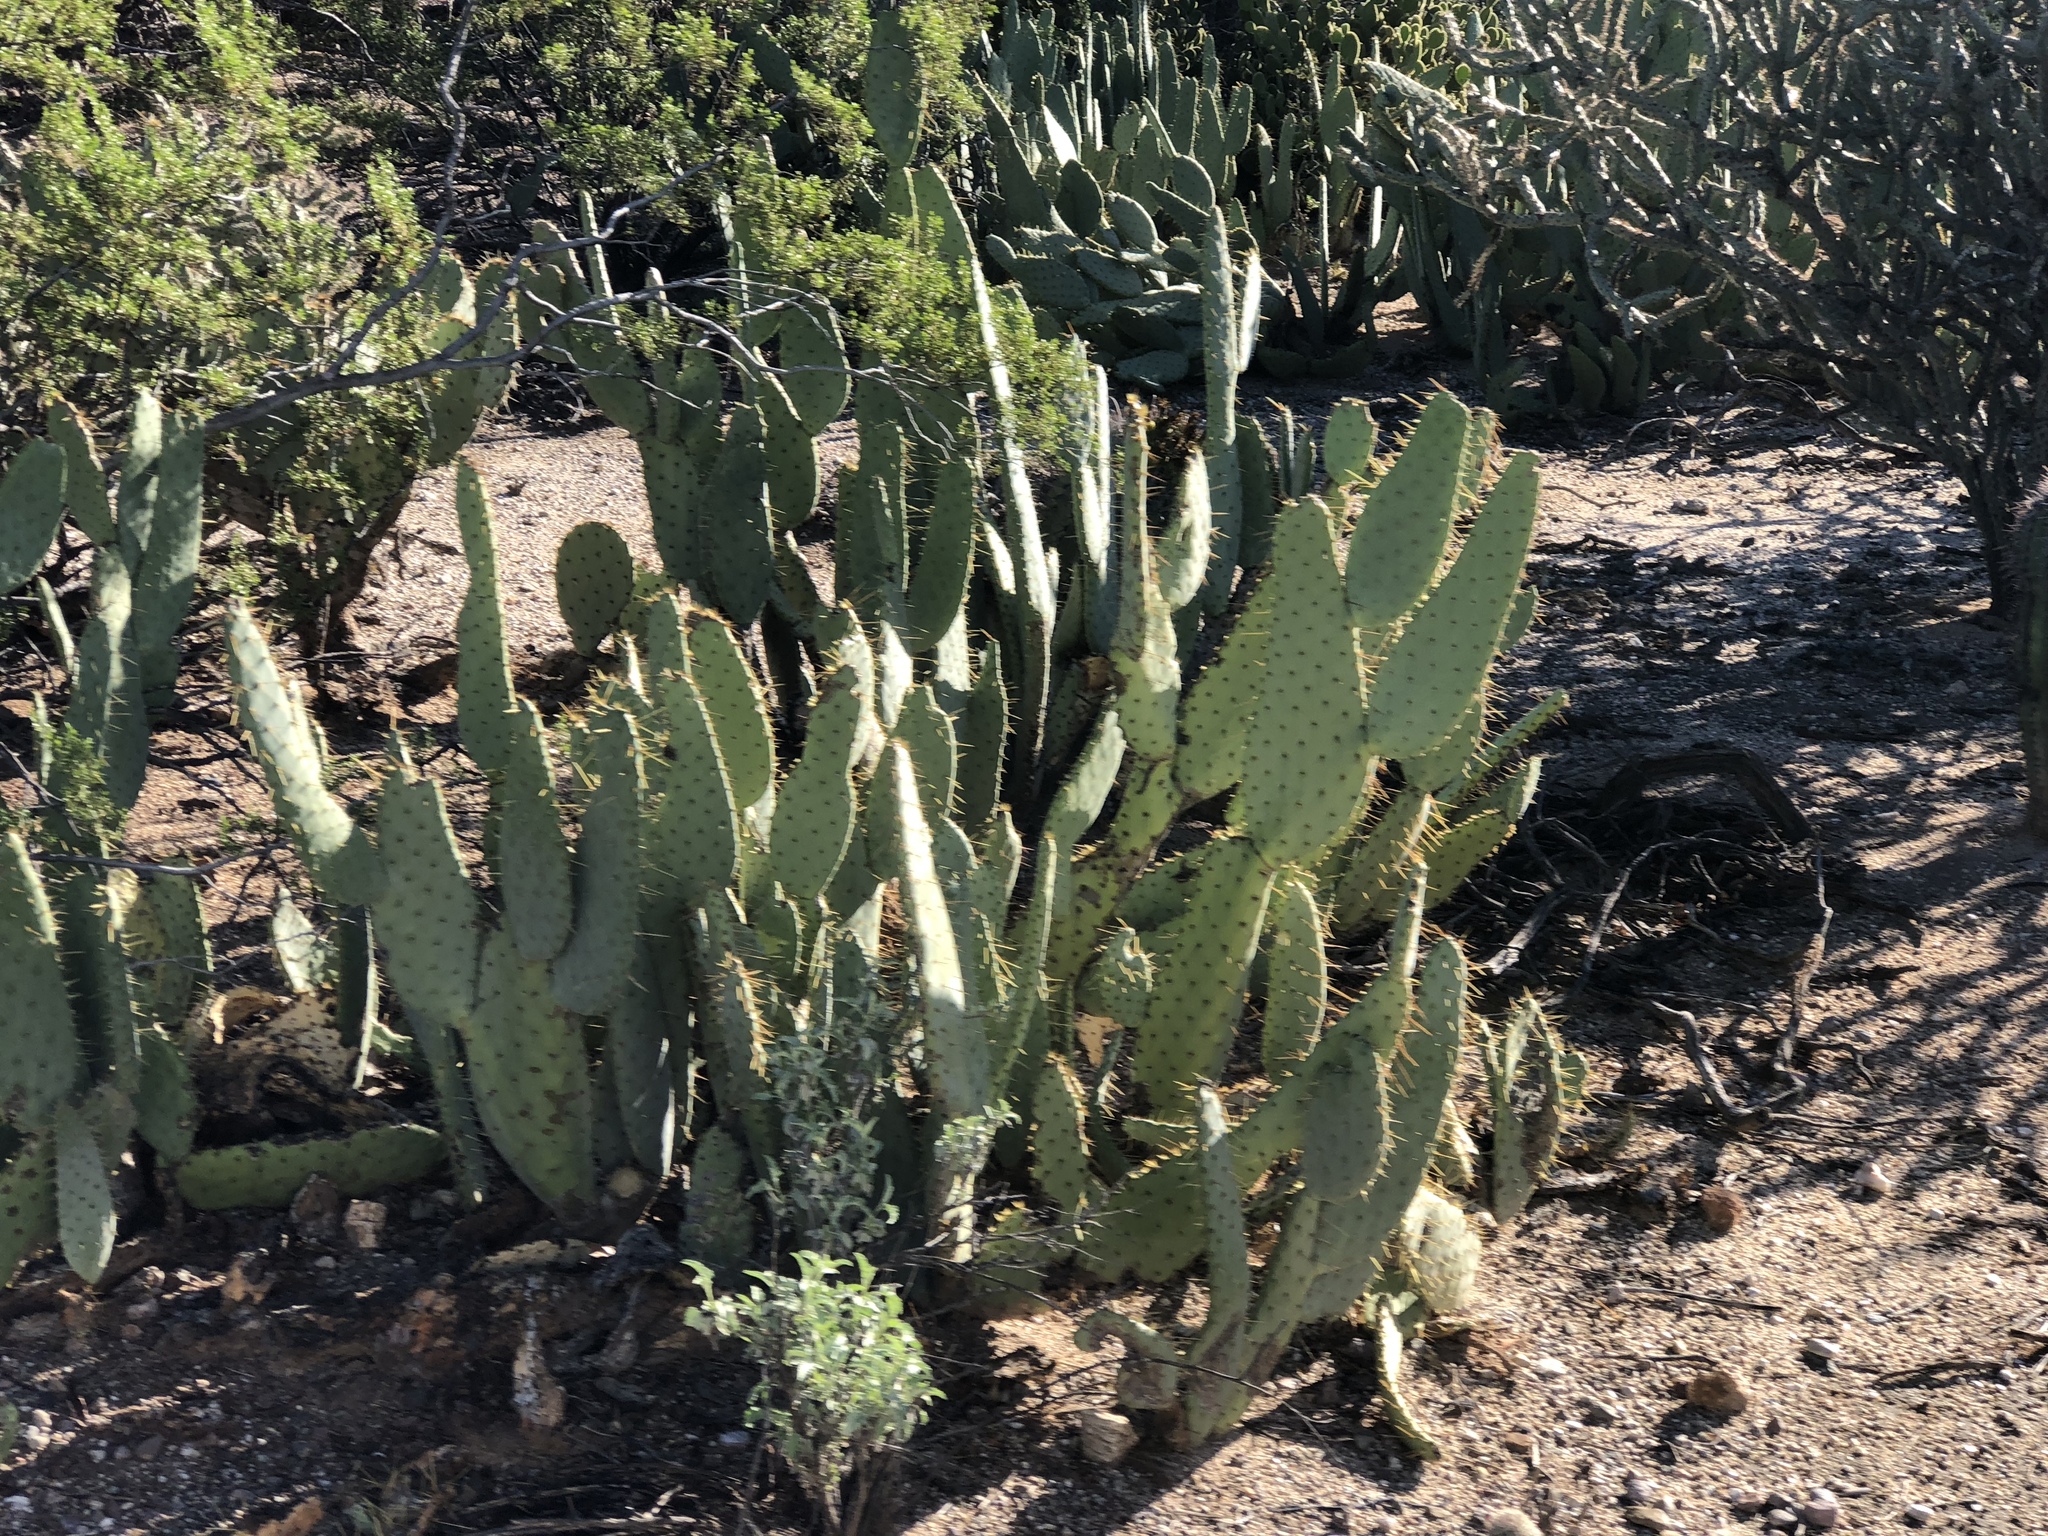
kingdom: Plantae
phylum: Tracheophyta
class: Magnoliopsida
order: Caryophyllales
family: Cactaceae
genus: Opuntia
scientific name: Opuntia engelmannii
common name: Cactus-apple
